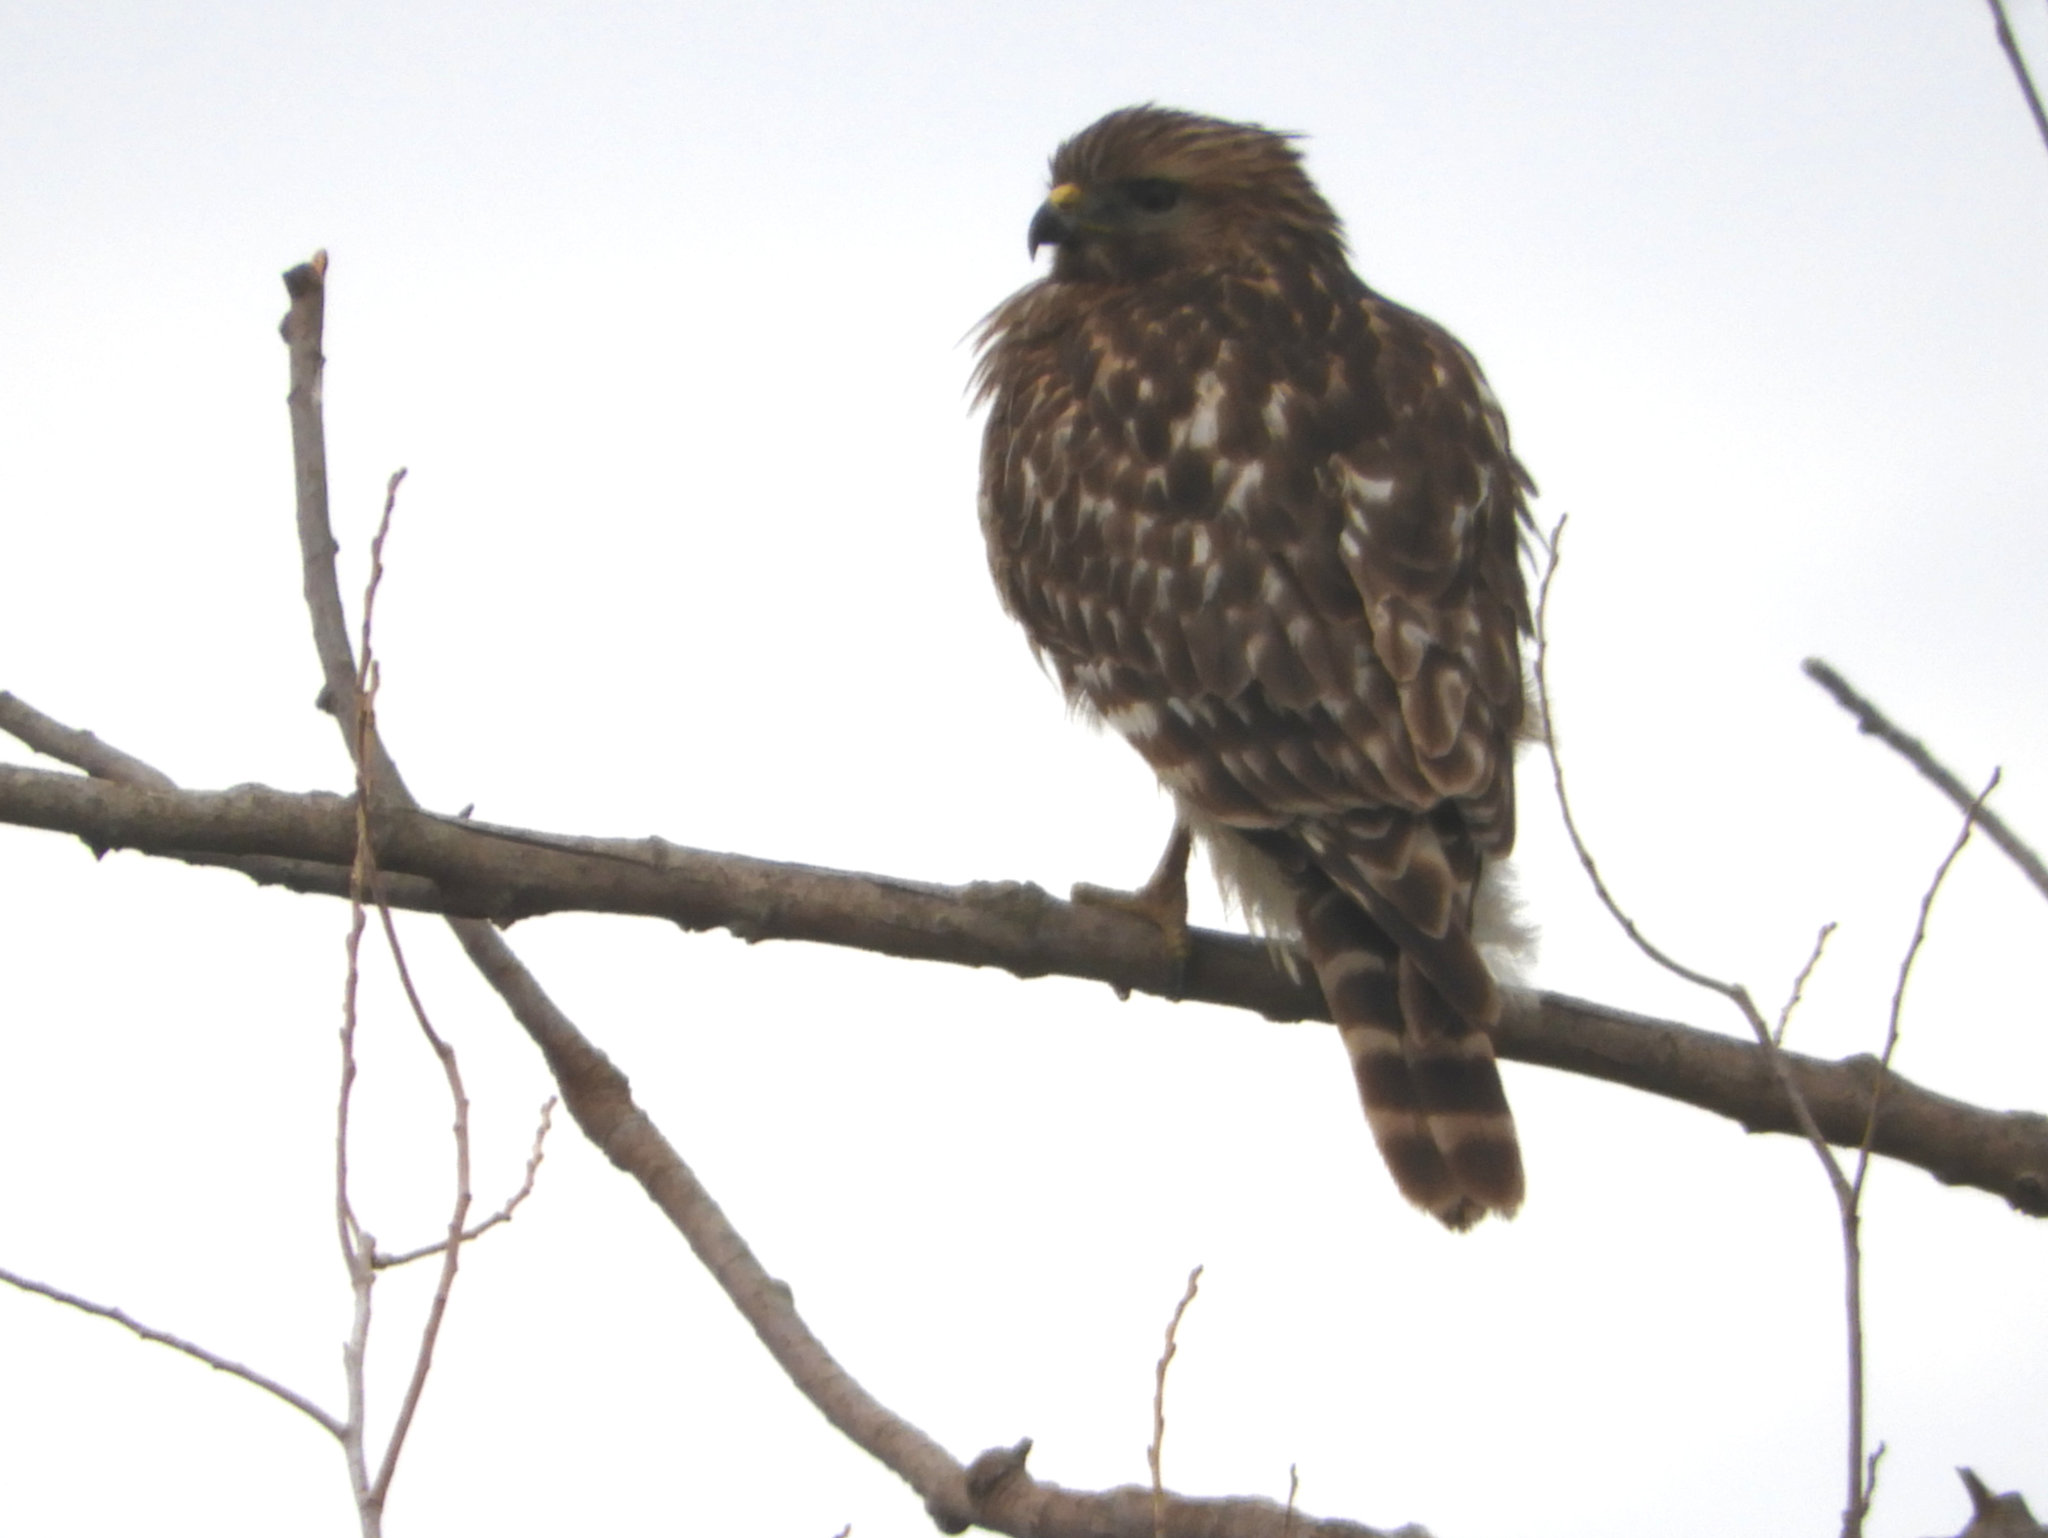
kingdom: Animalia
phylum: Chordata
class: Aves
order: Accipitriformes
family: Accipitridae
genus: Buteo
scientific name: Buteo lineatus
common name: Red-shouldered hawk
